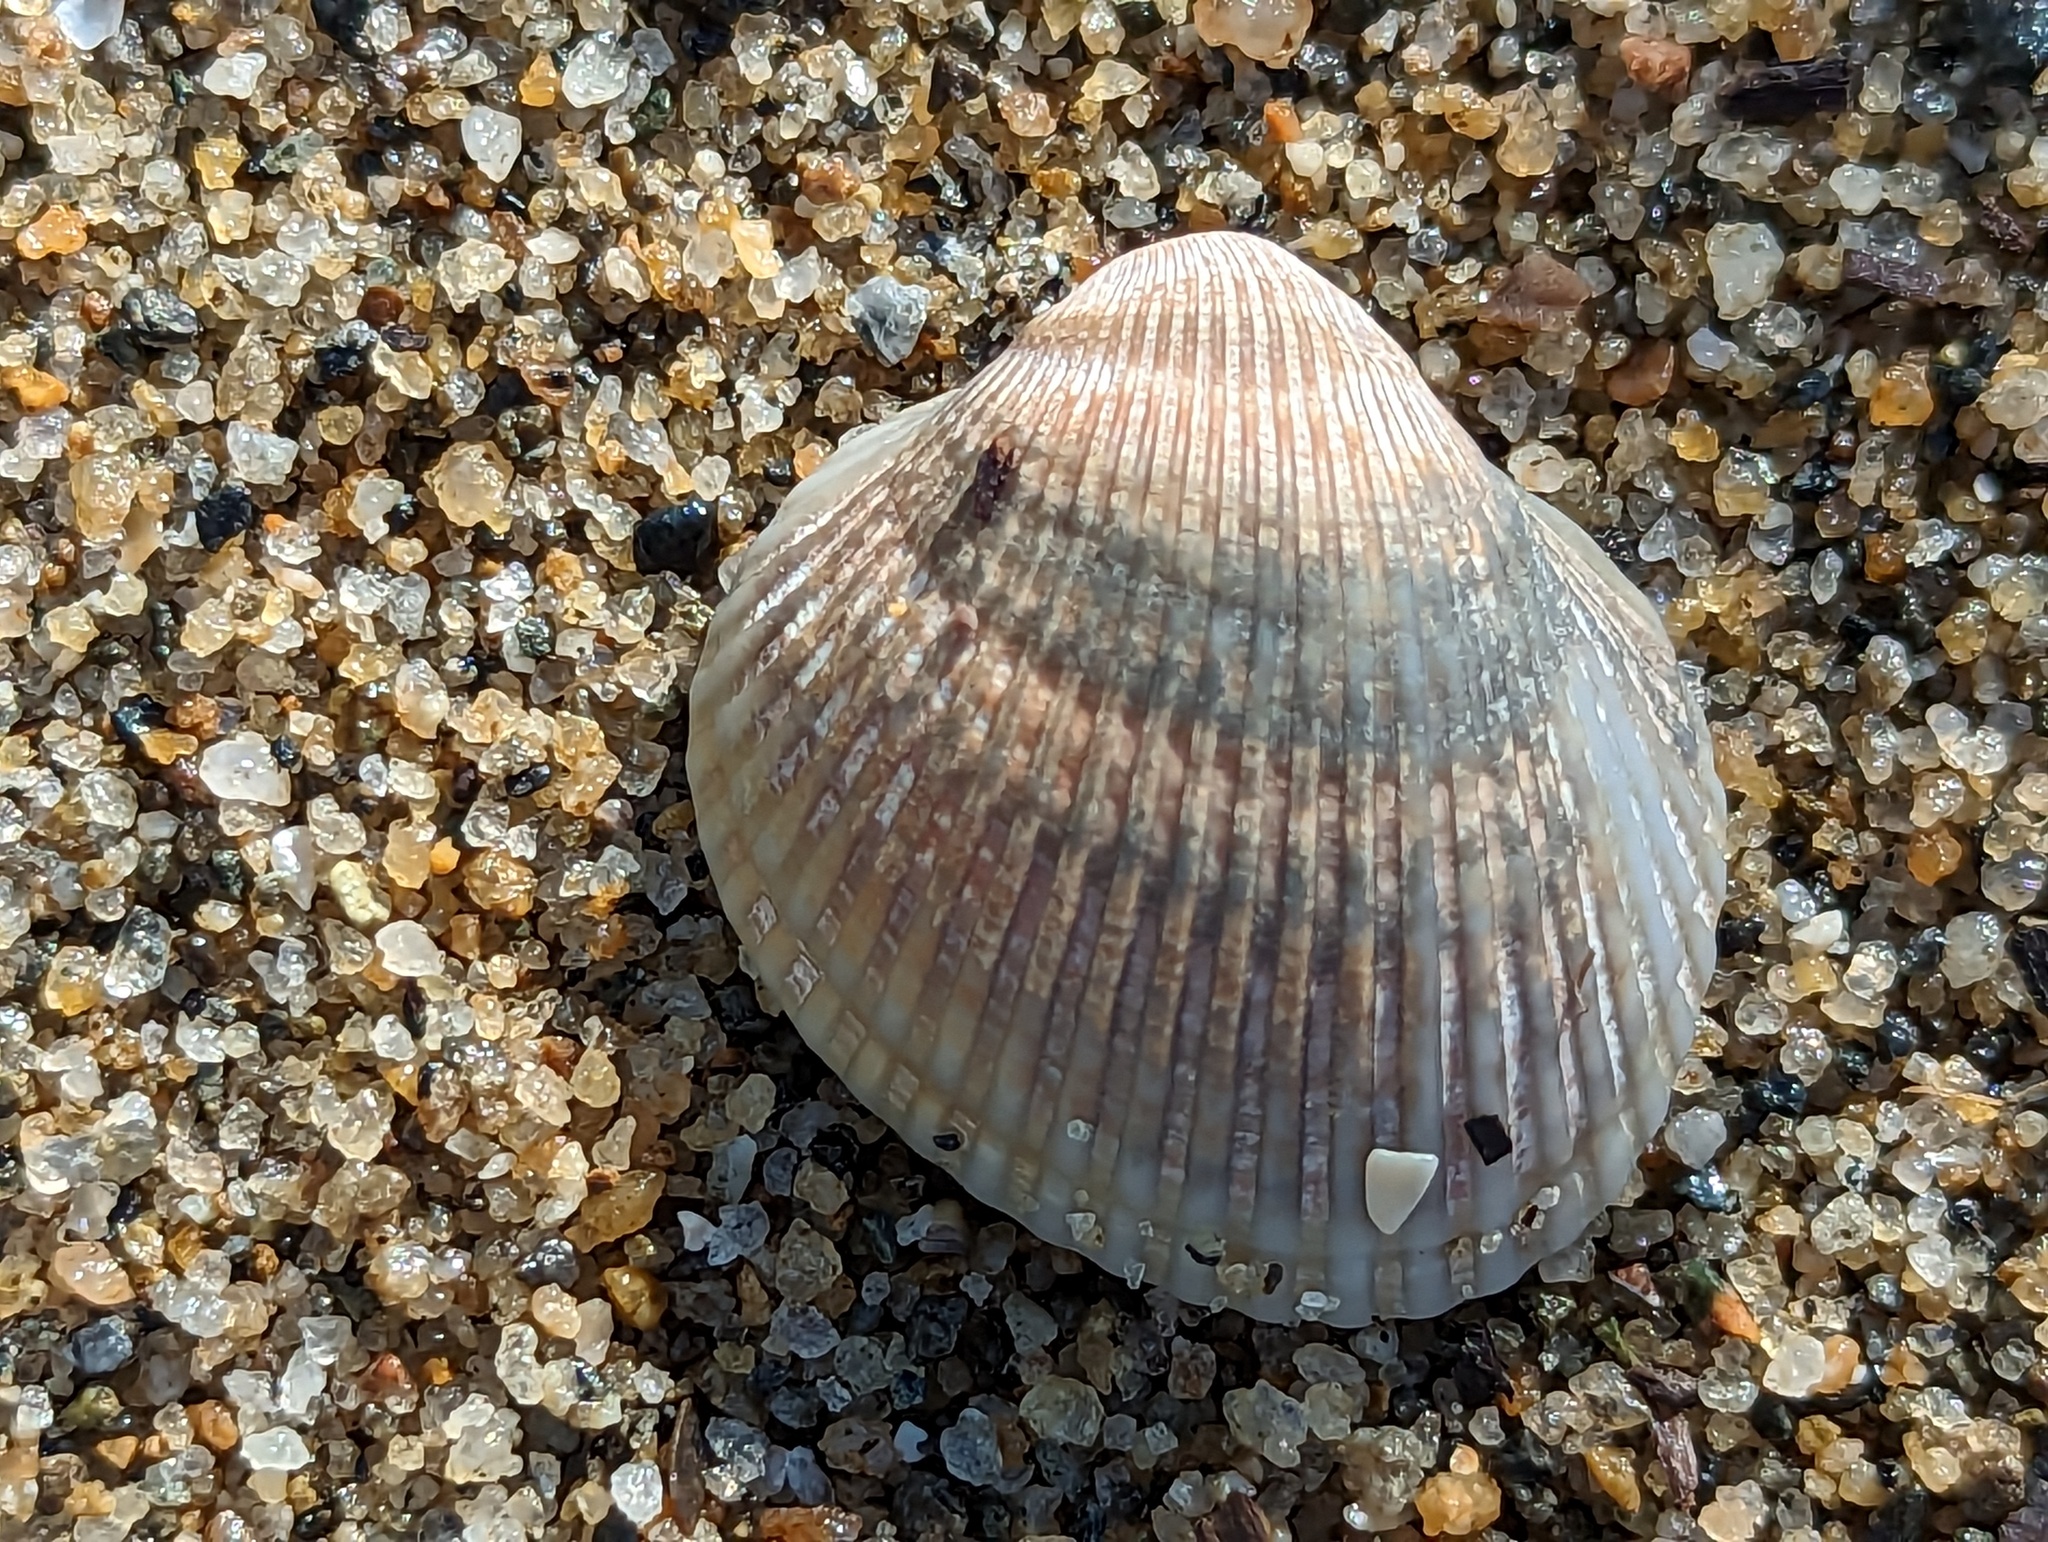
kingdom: Animalia
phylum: Mollusca
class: Bivalvia
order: Arcida
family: Arcidae
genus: Lunarca
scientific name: Lunarca ovalis
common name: Blood ark
